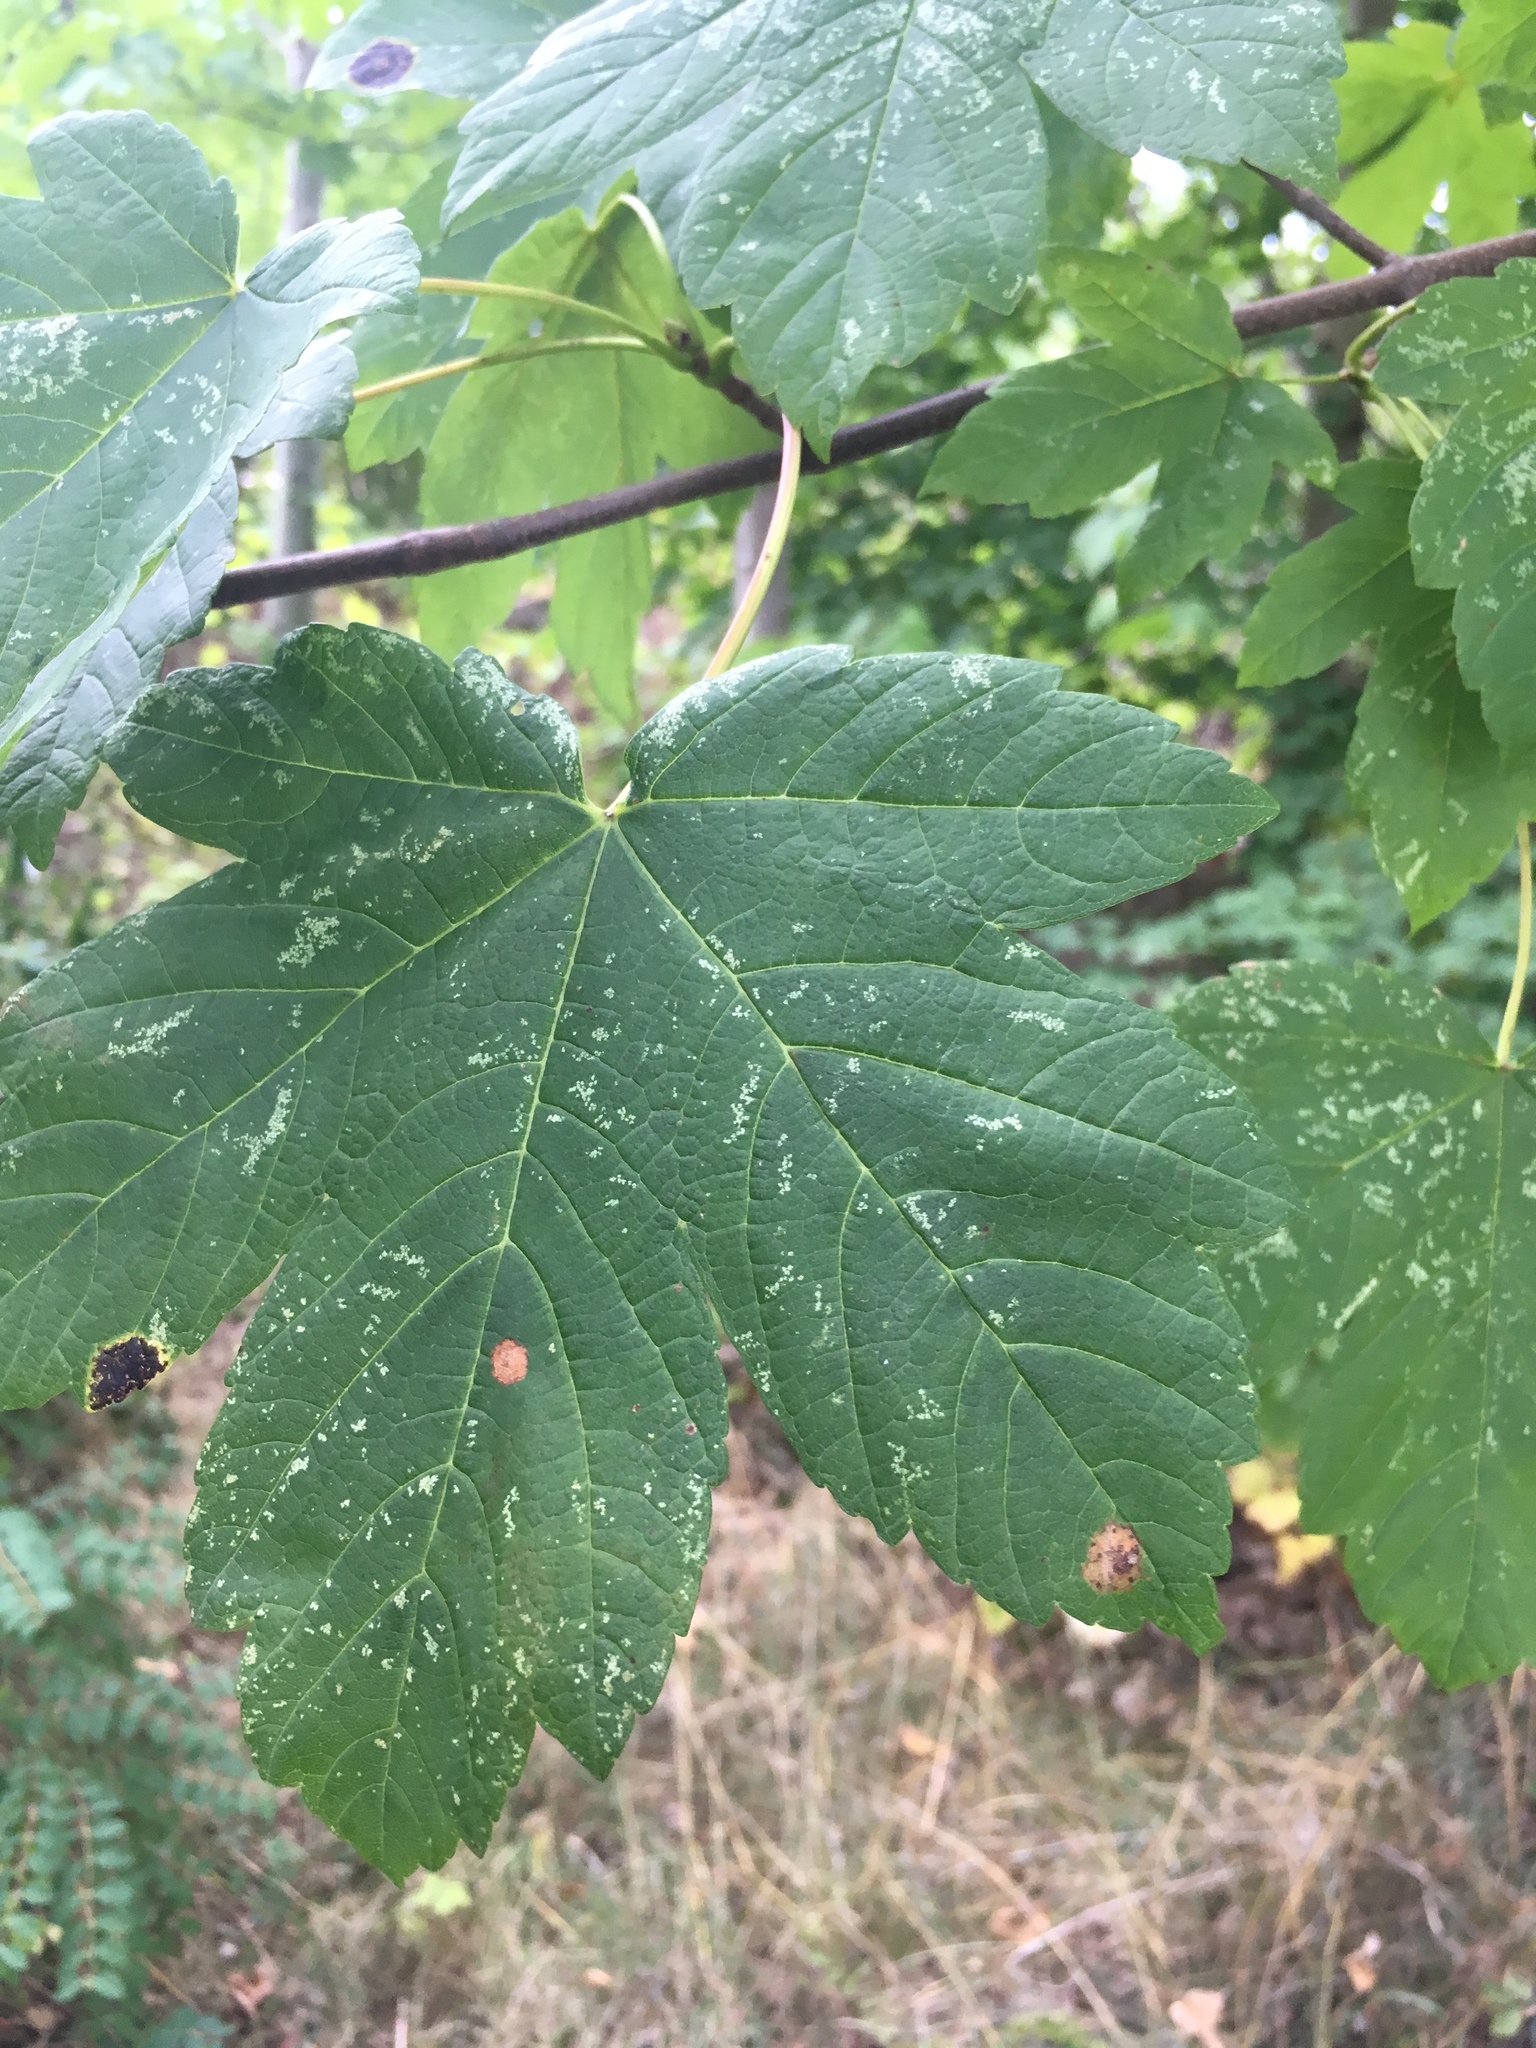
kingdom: Plantae
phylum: Tracheophyta
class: Magnoliopsida
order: Sapindales
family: Sapindaceae
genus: Acer
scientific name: Acer pseudoplatanus
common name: Sycamore
